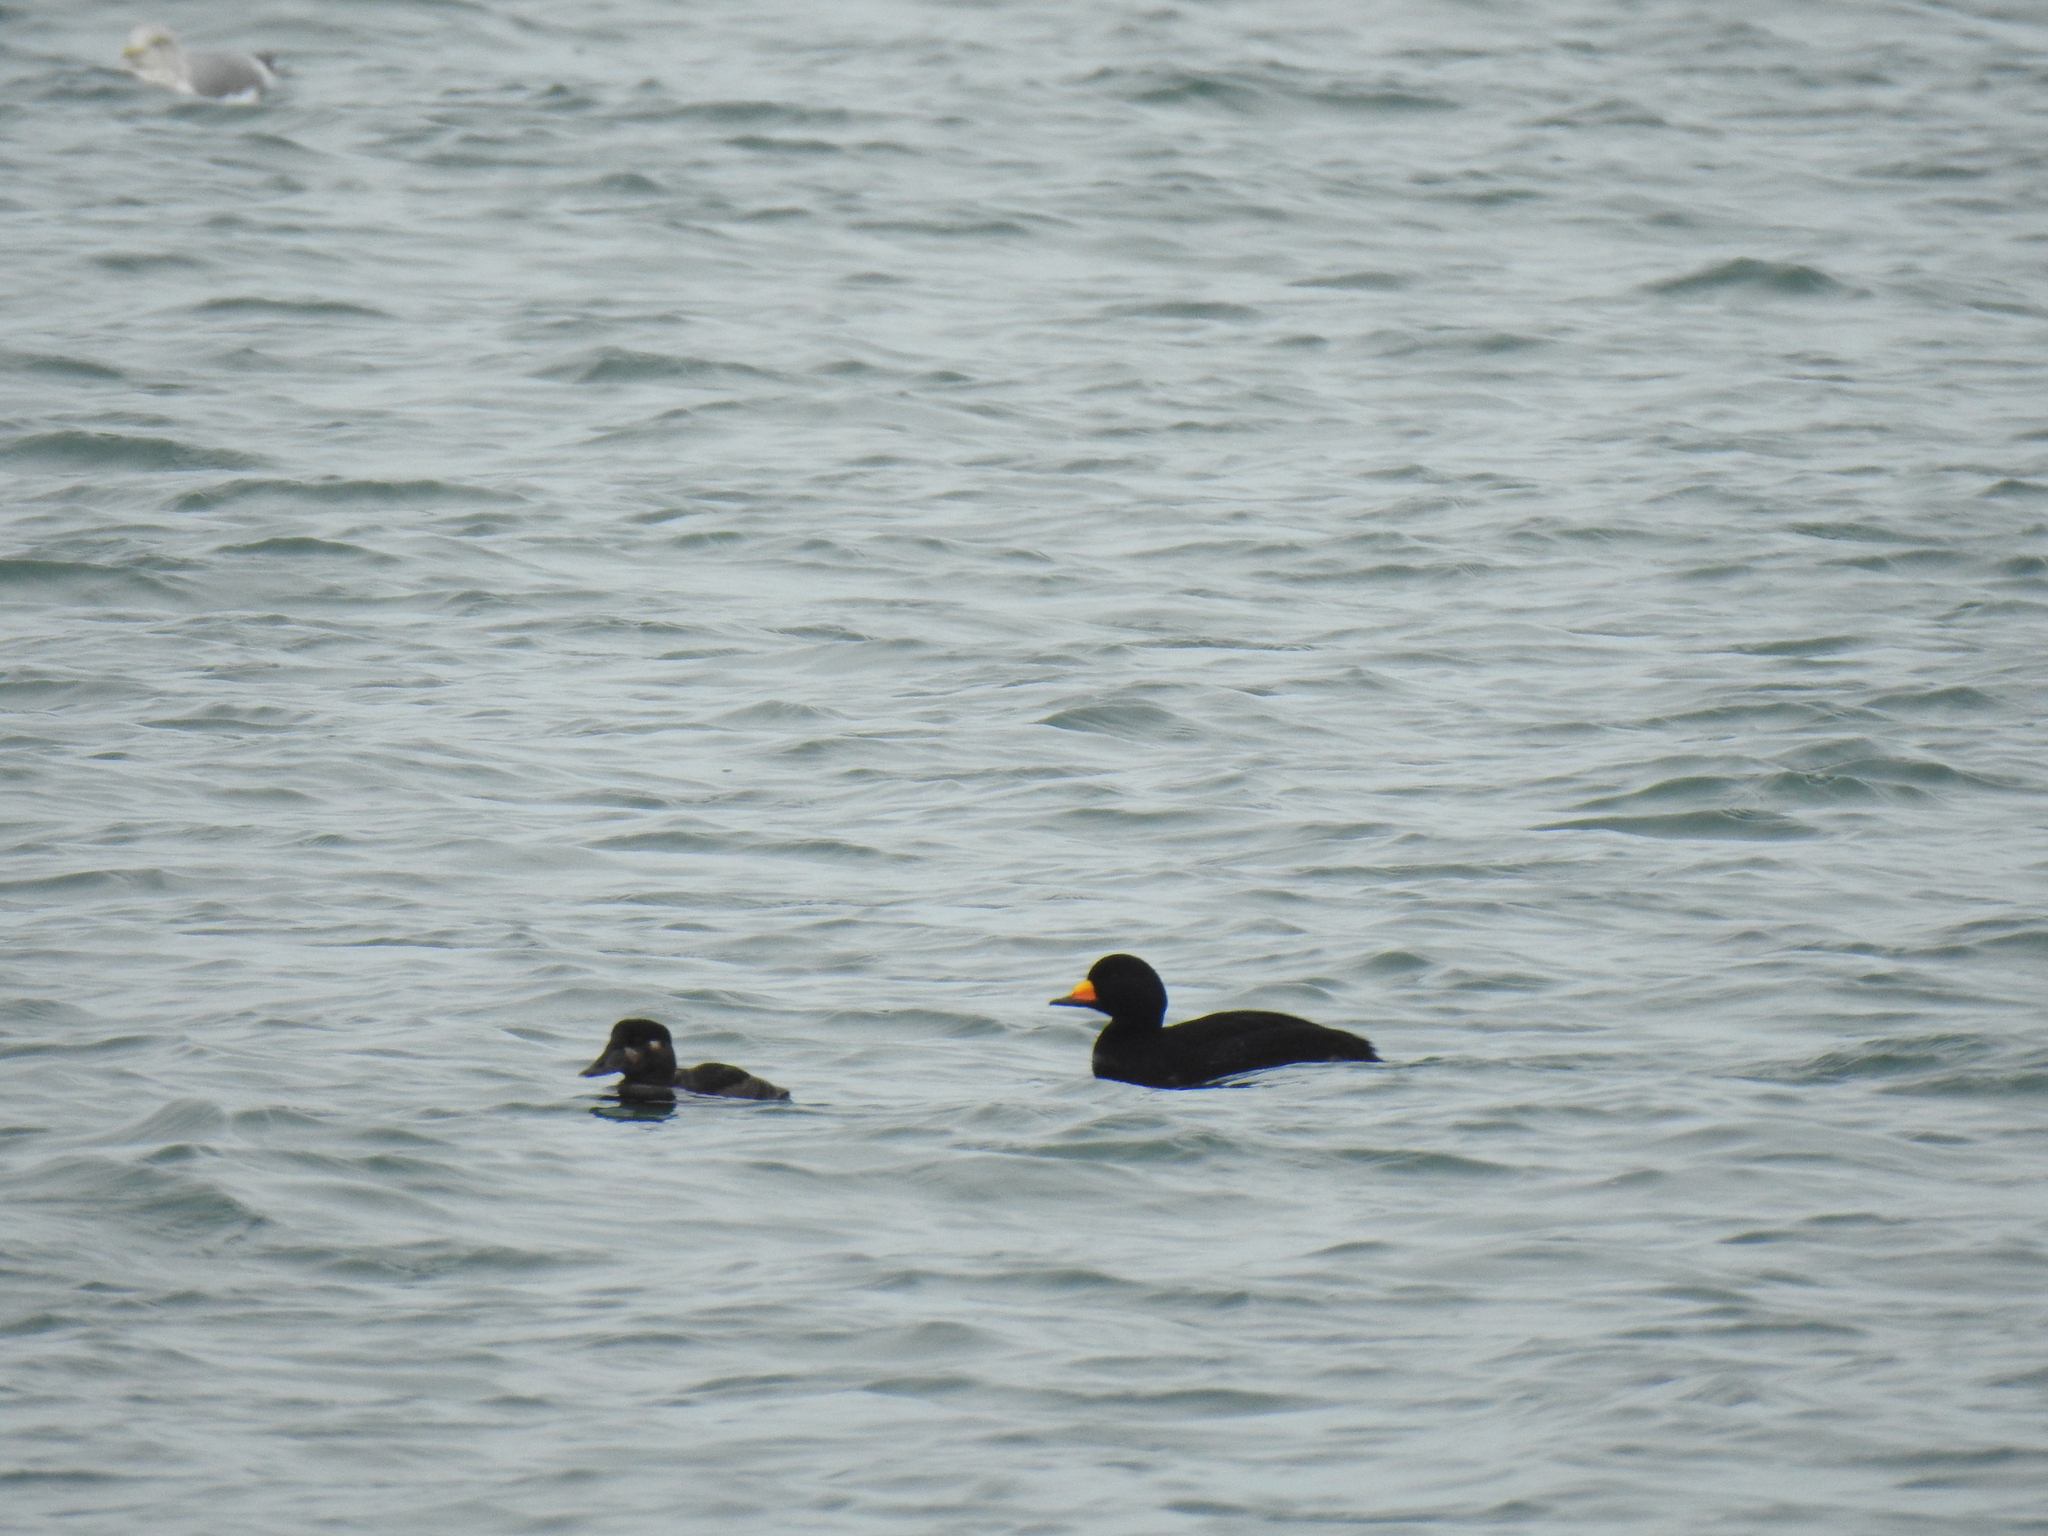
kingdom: Animalia
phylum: Chordata
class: Aves
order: Anseriformes
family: Anatidae
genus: Melanitta
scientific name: Melanitta americana
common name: Black scoter
